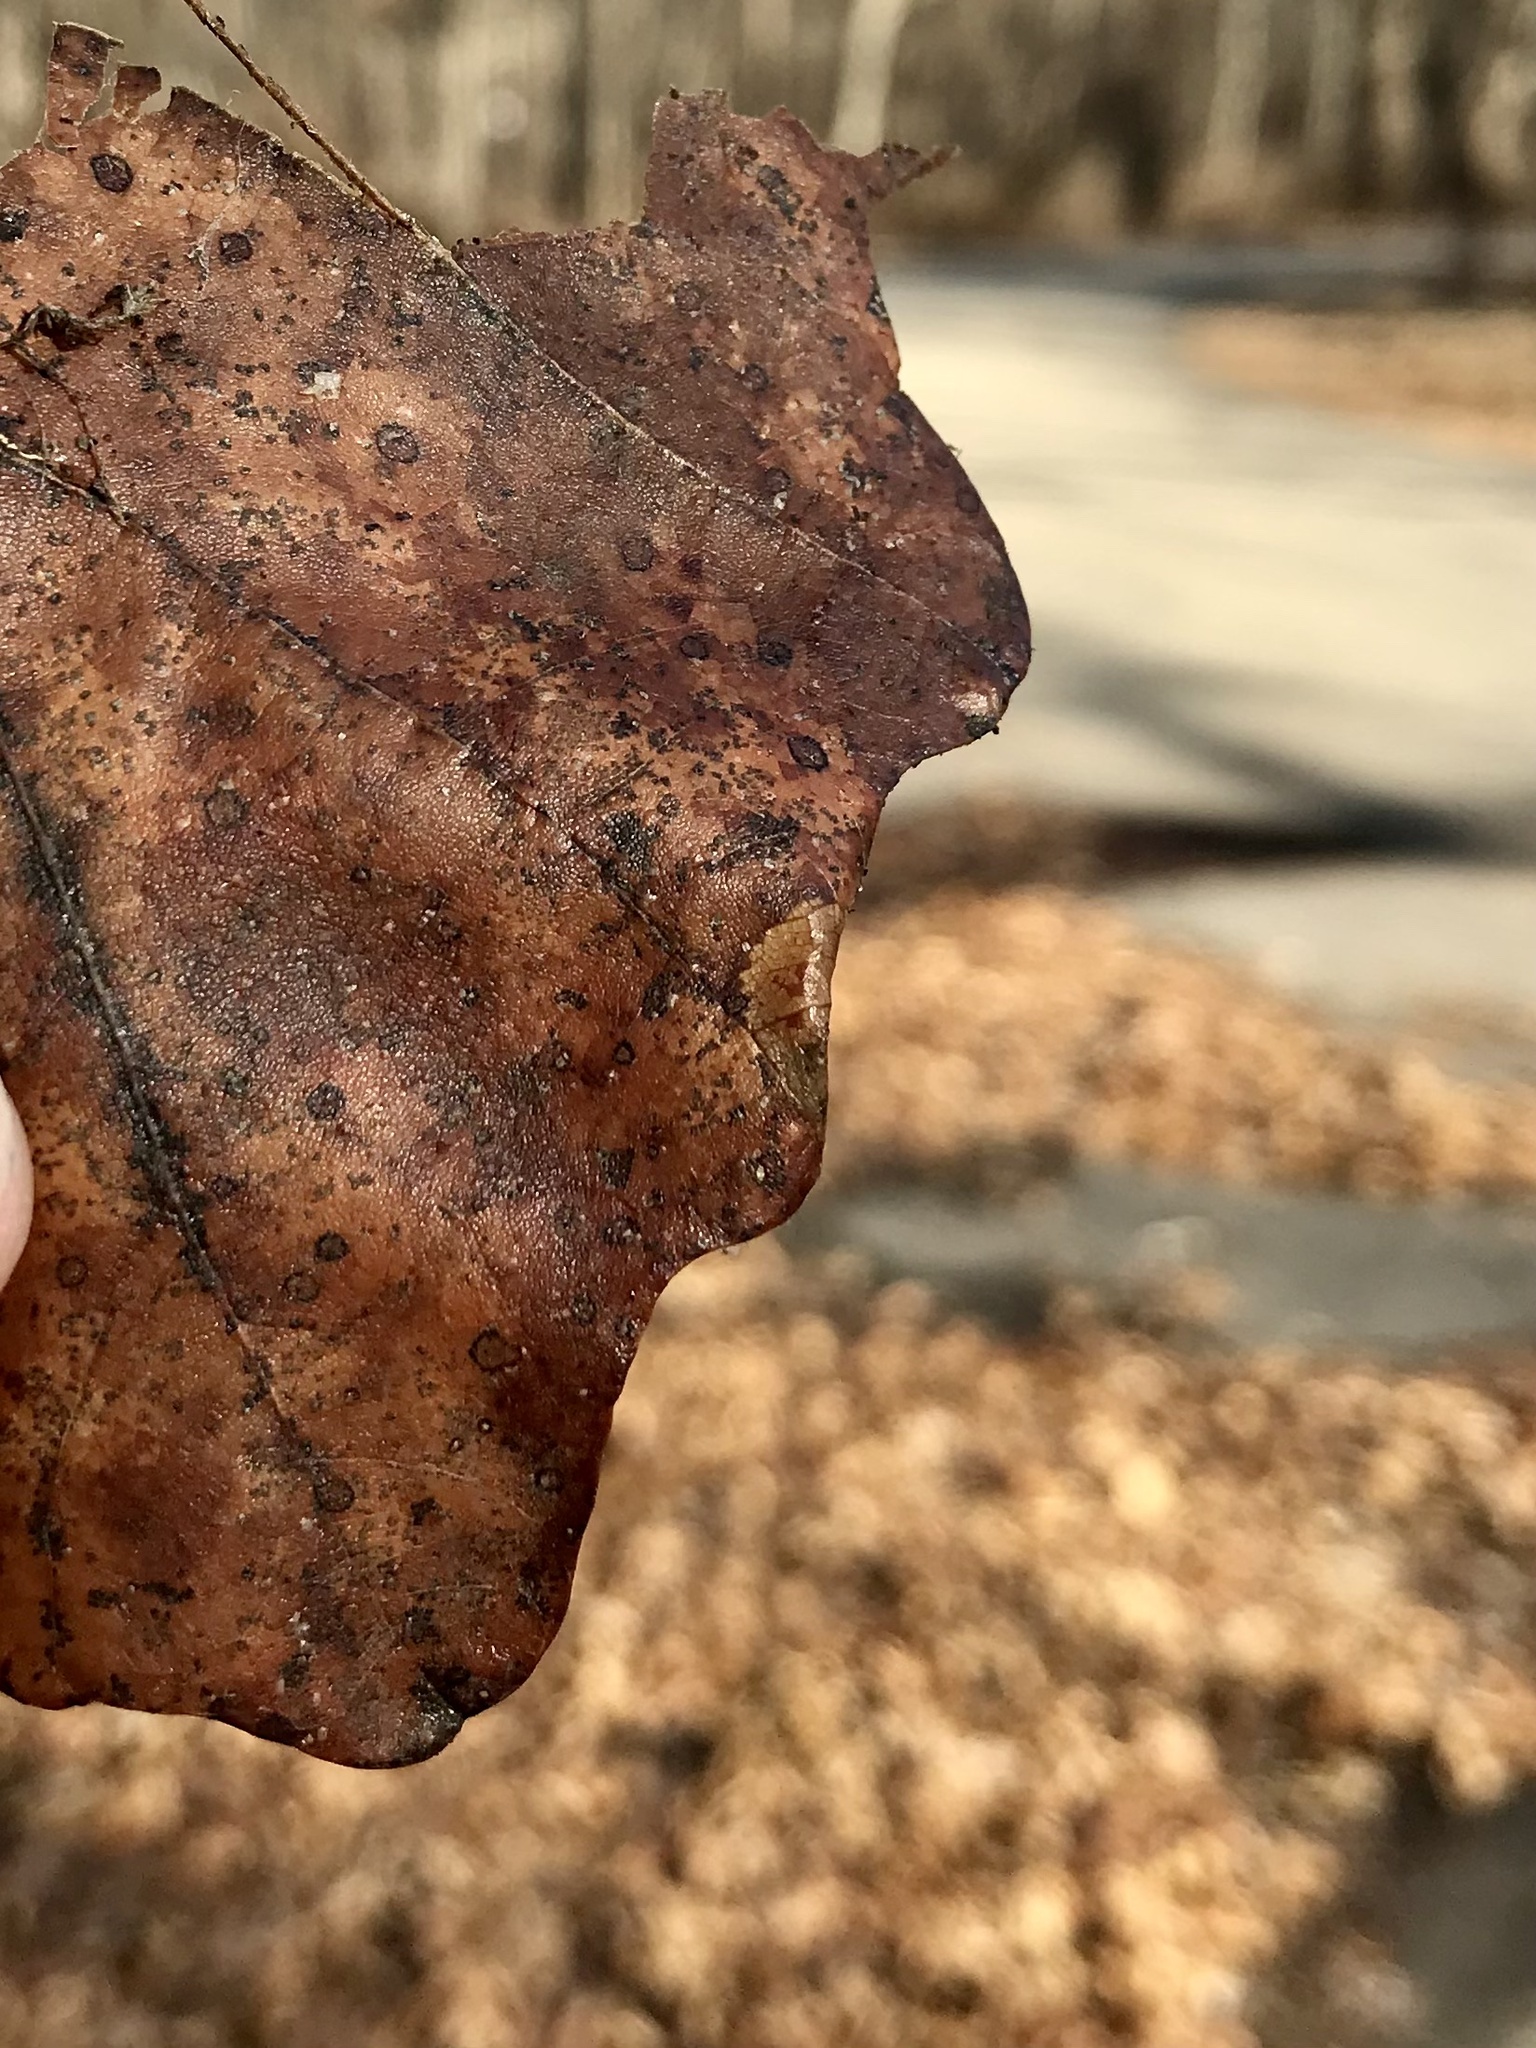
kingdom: Animalia
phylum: Arthropoda
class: Insecta
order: Lepidoptera
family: Gracillariidae
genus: Phyllonorycter
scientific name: Phyllonorycter albanotella
